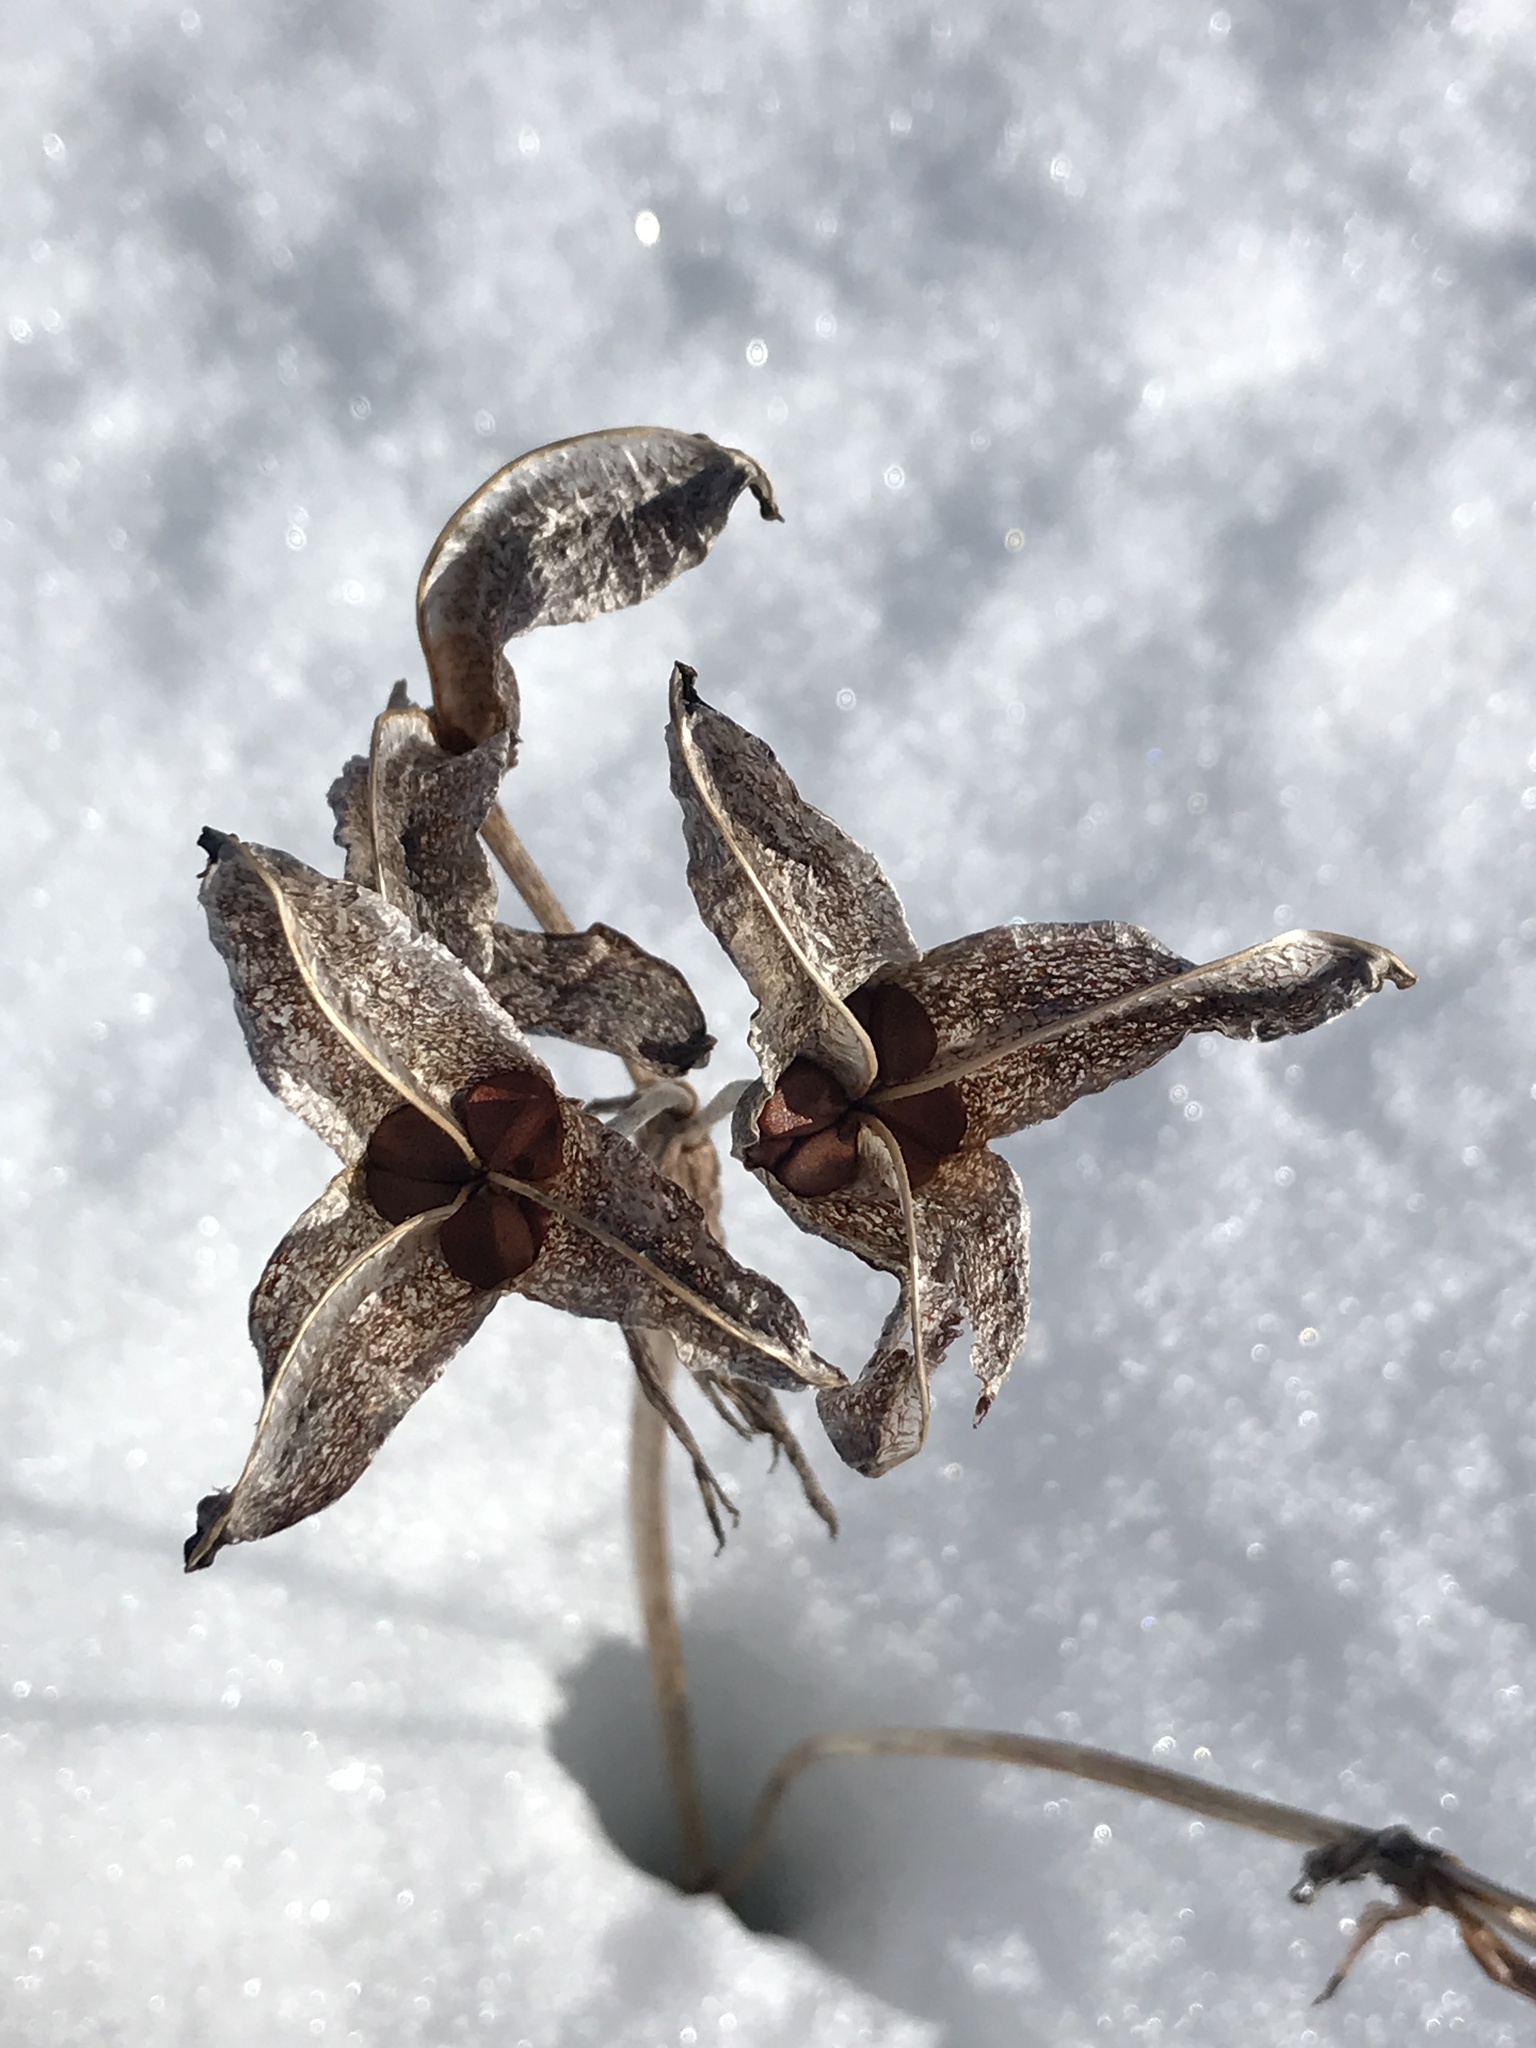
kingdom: Plantae
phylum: Tracheophyta
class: Liliopsida
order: Asparagales
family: Iridaceae
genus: Iris
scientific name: Iris versicolor
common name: Purple iris
